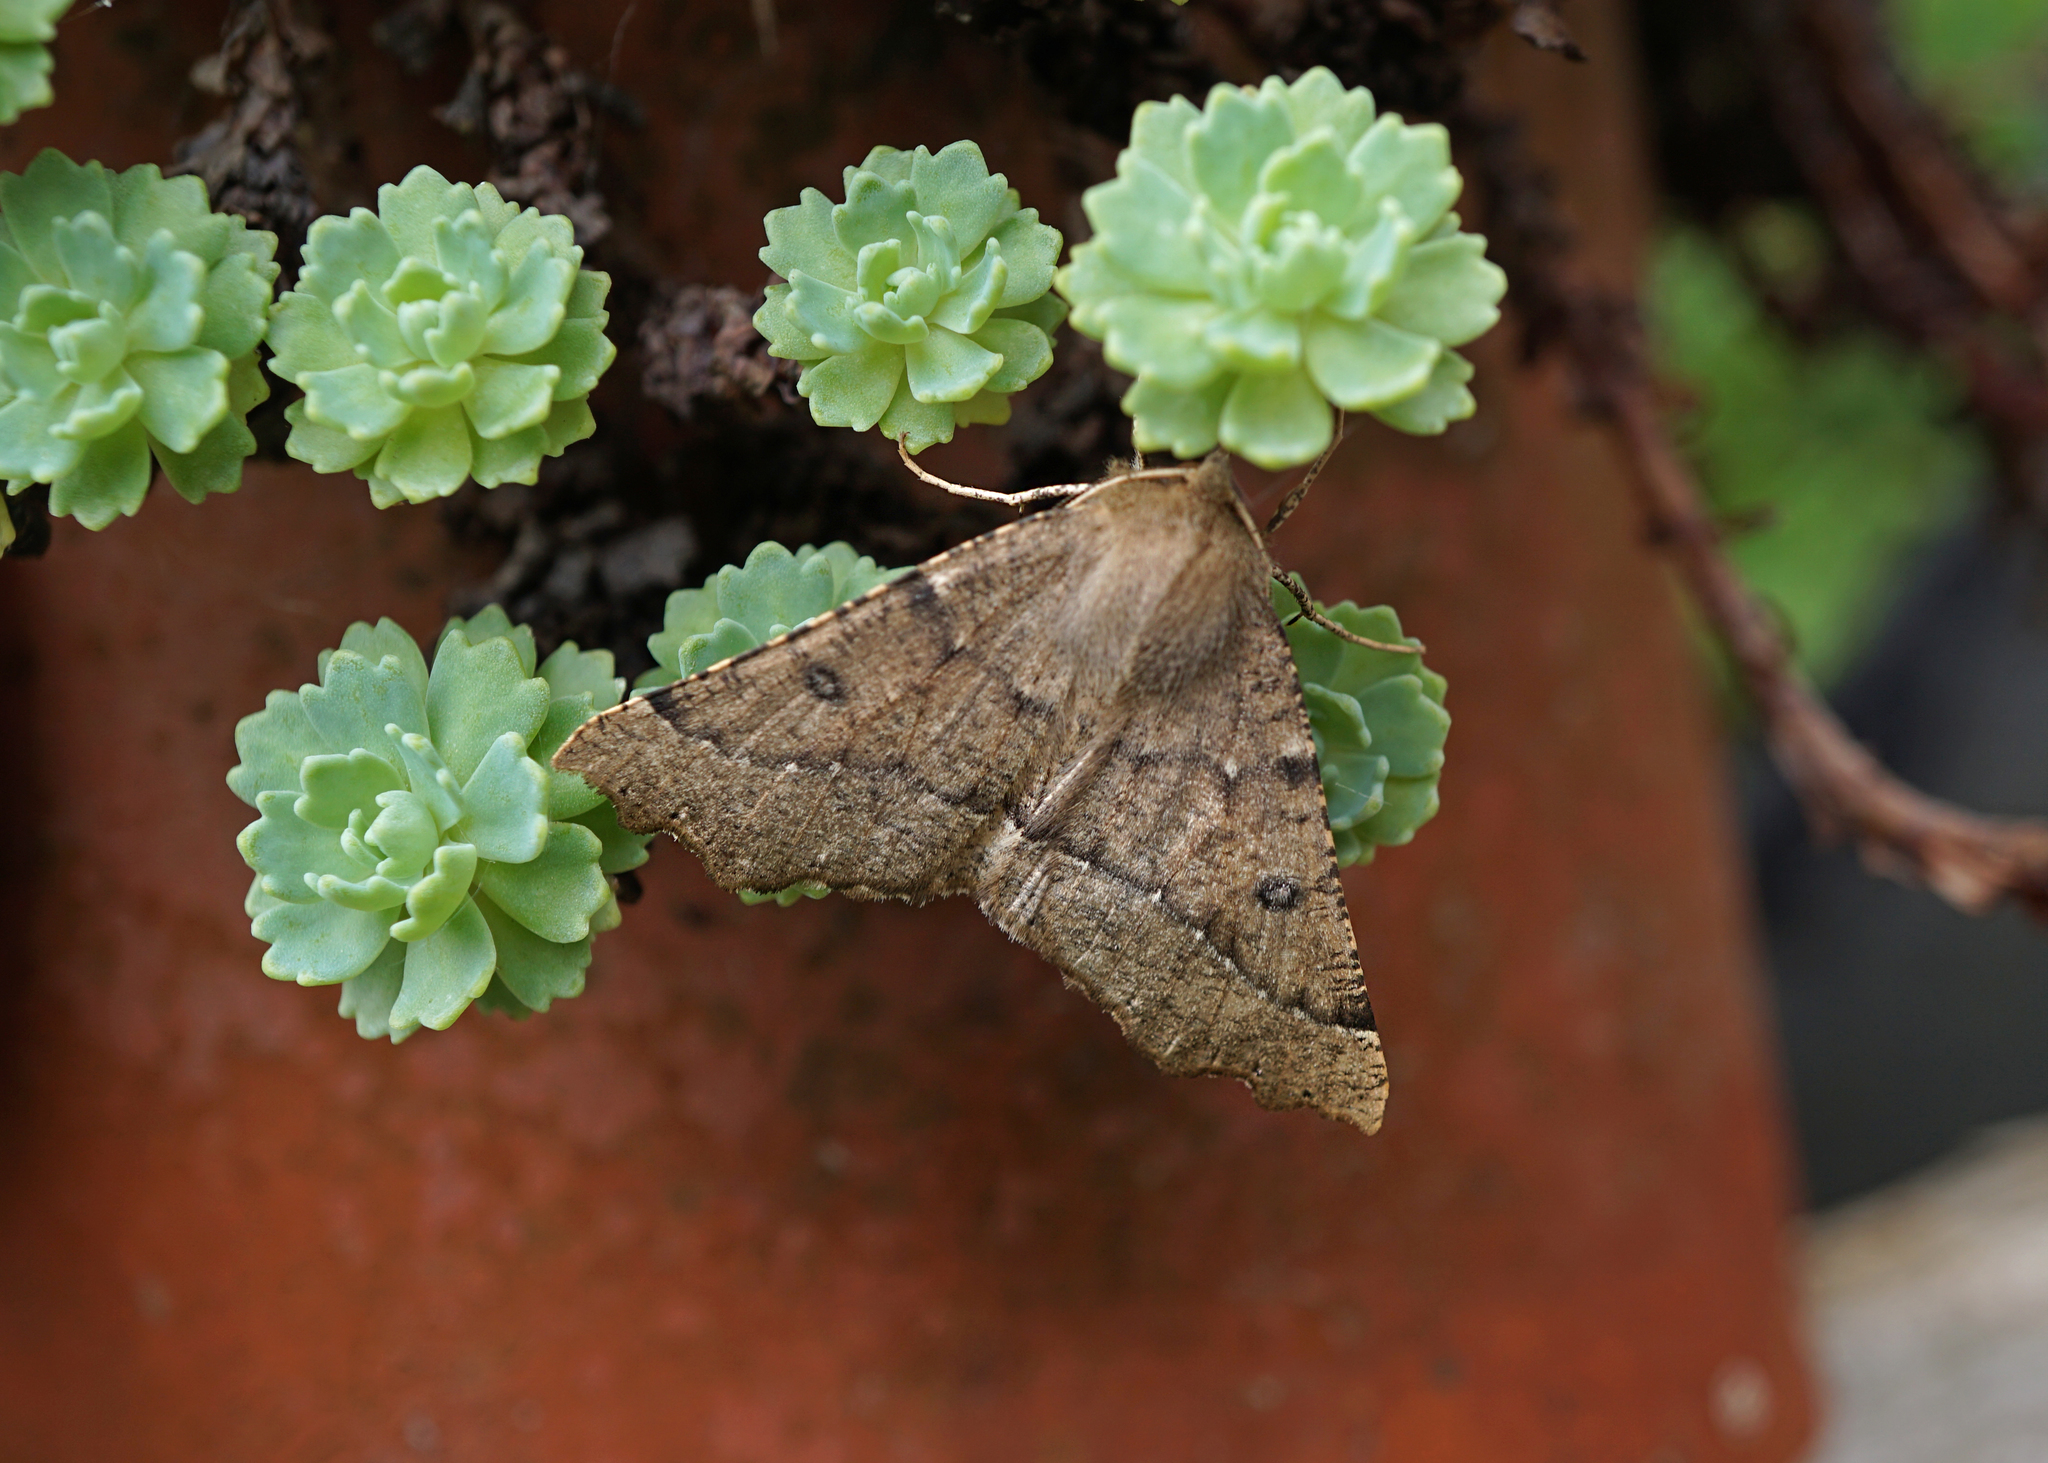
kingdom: Animalia
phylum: Arthropoda
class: Insecta
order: Lepidoptera
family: Geometridae
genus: Odontopera
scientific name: Odontopera bidentata
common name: Scalloped hazel
